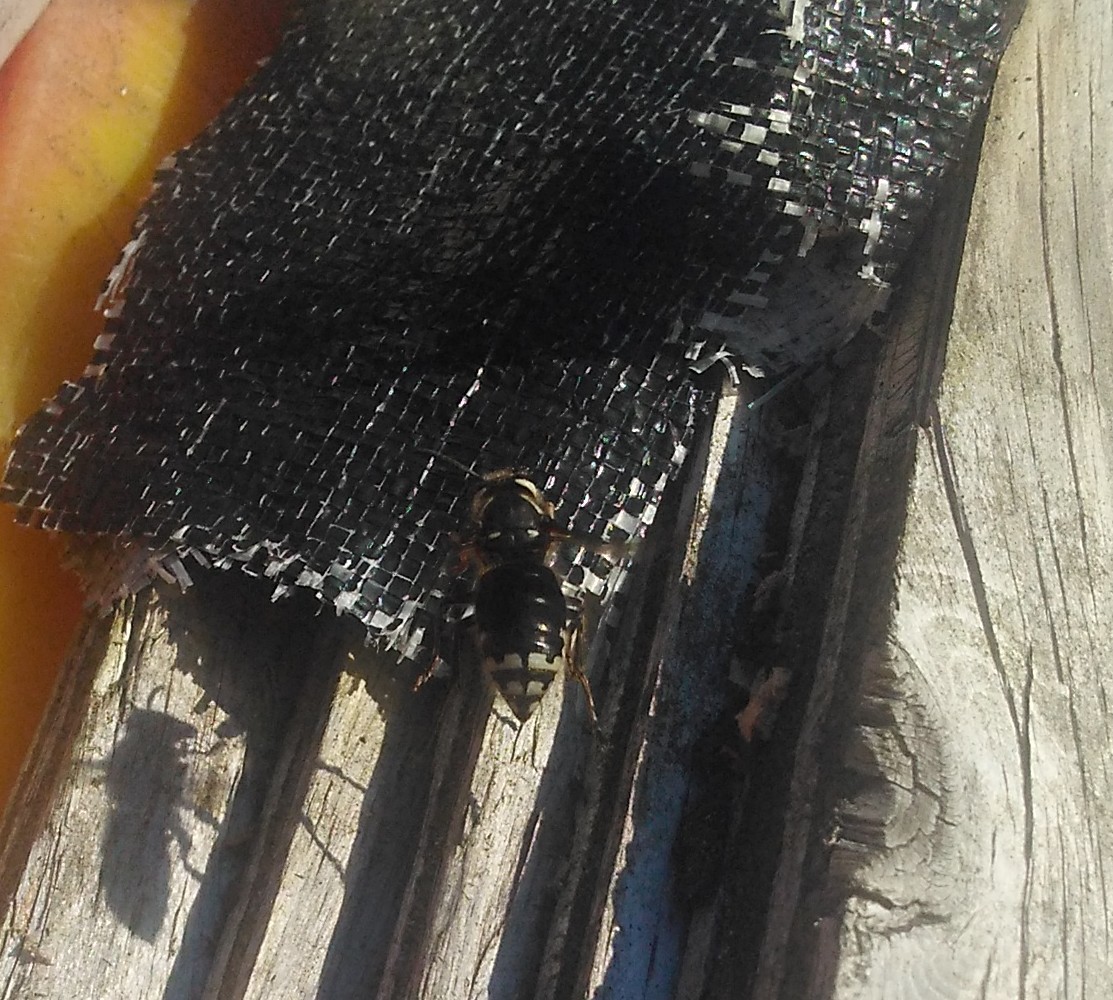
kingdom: Animalia
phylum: Arthropoda
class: Insecta
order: Hymenoptera
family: Vespidae
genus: Dolichovespula
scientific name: Dolichovespula maculata
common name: Bald-faced hornet
